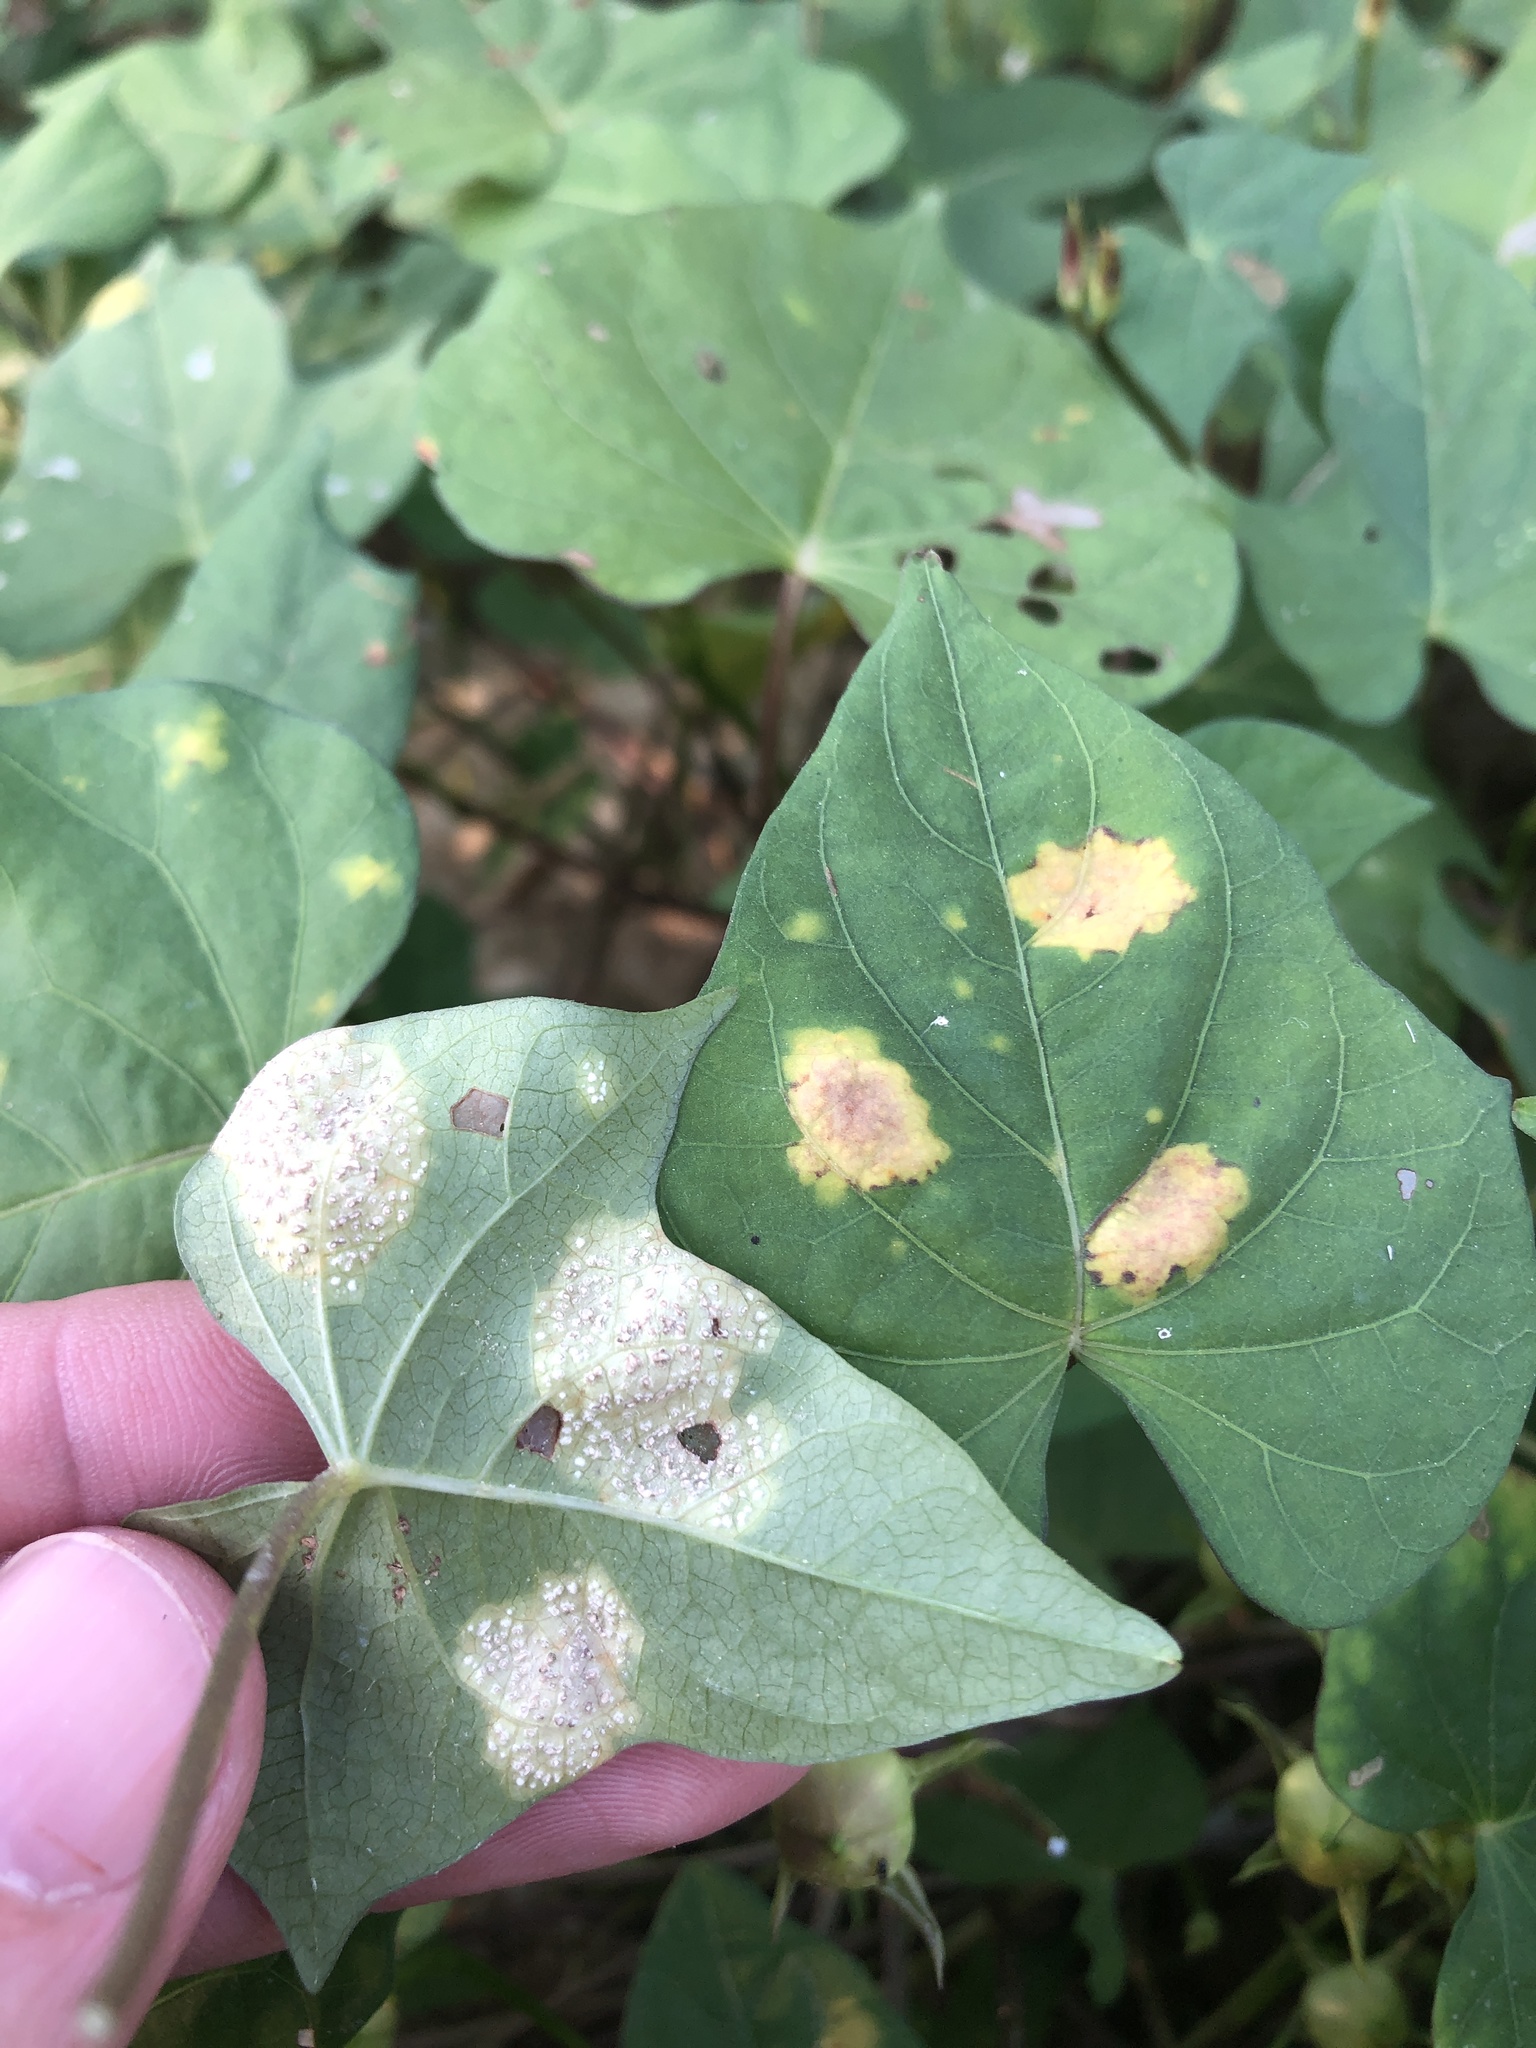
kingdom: Chromista
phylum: Oomycota
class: Peronosporea
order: Albuginales
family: Albuginaceae
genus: Albugo
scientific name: Albugo ipomoeae-panduratae
